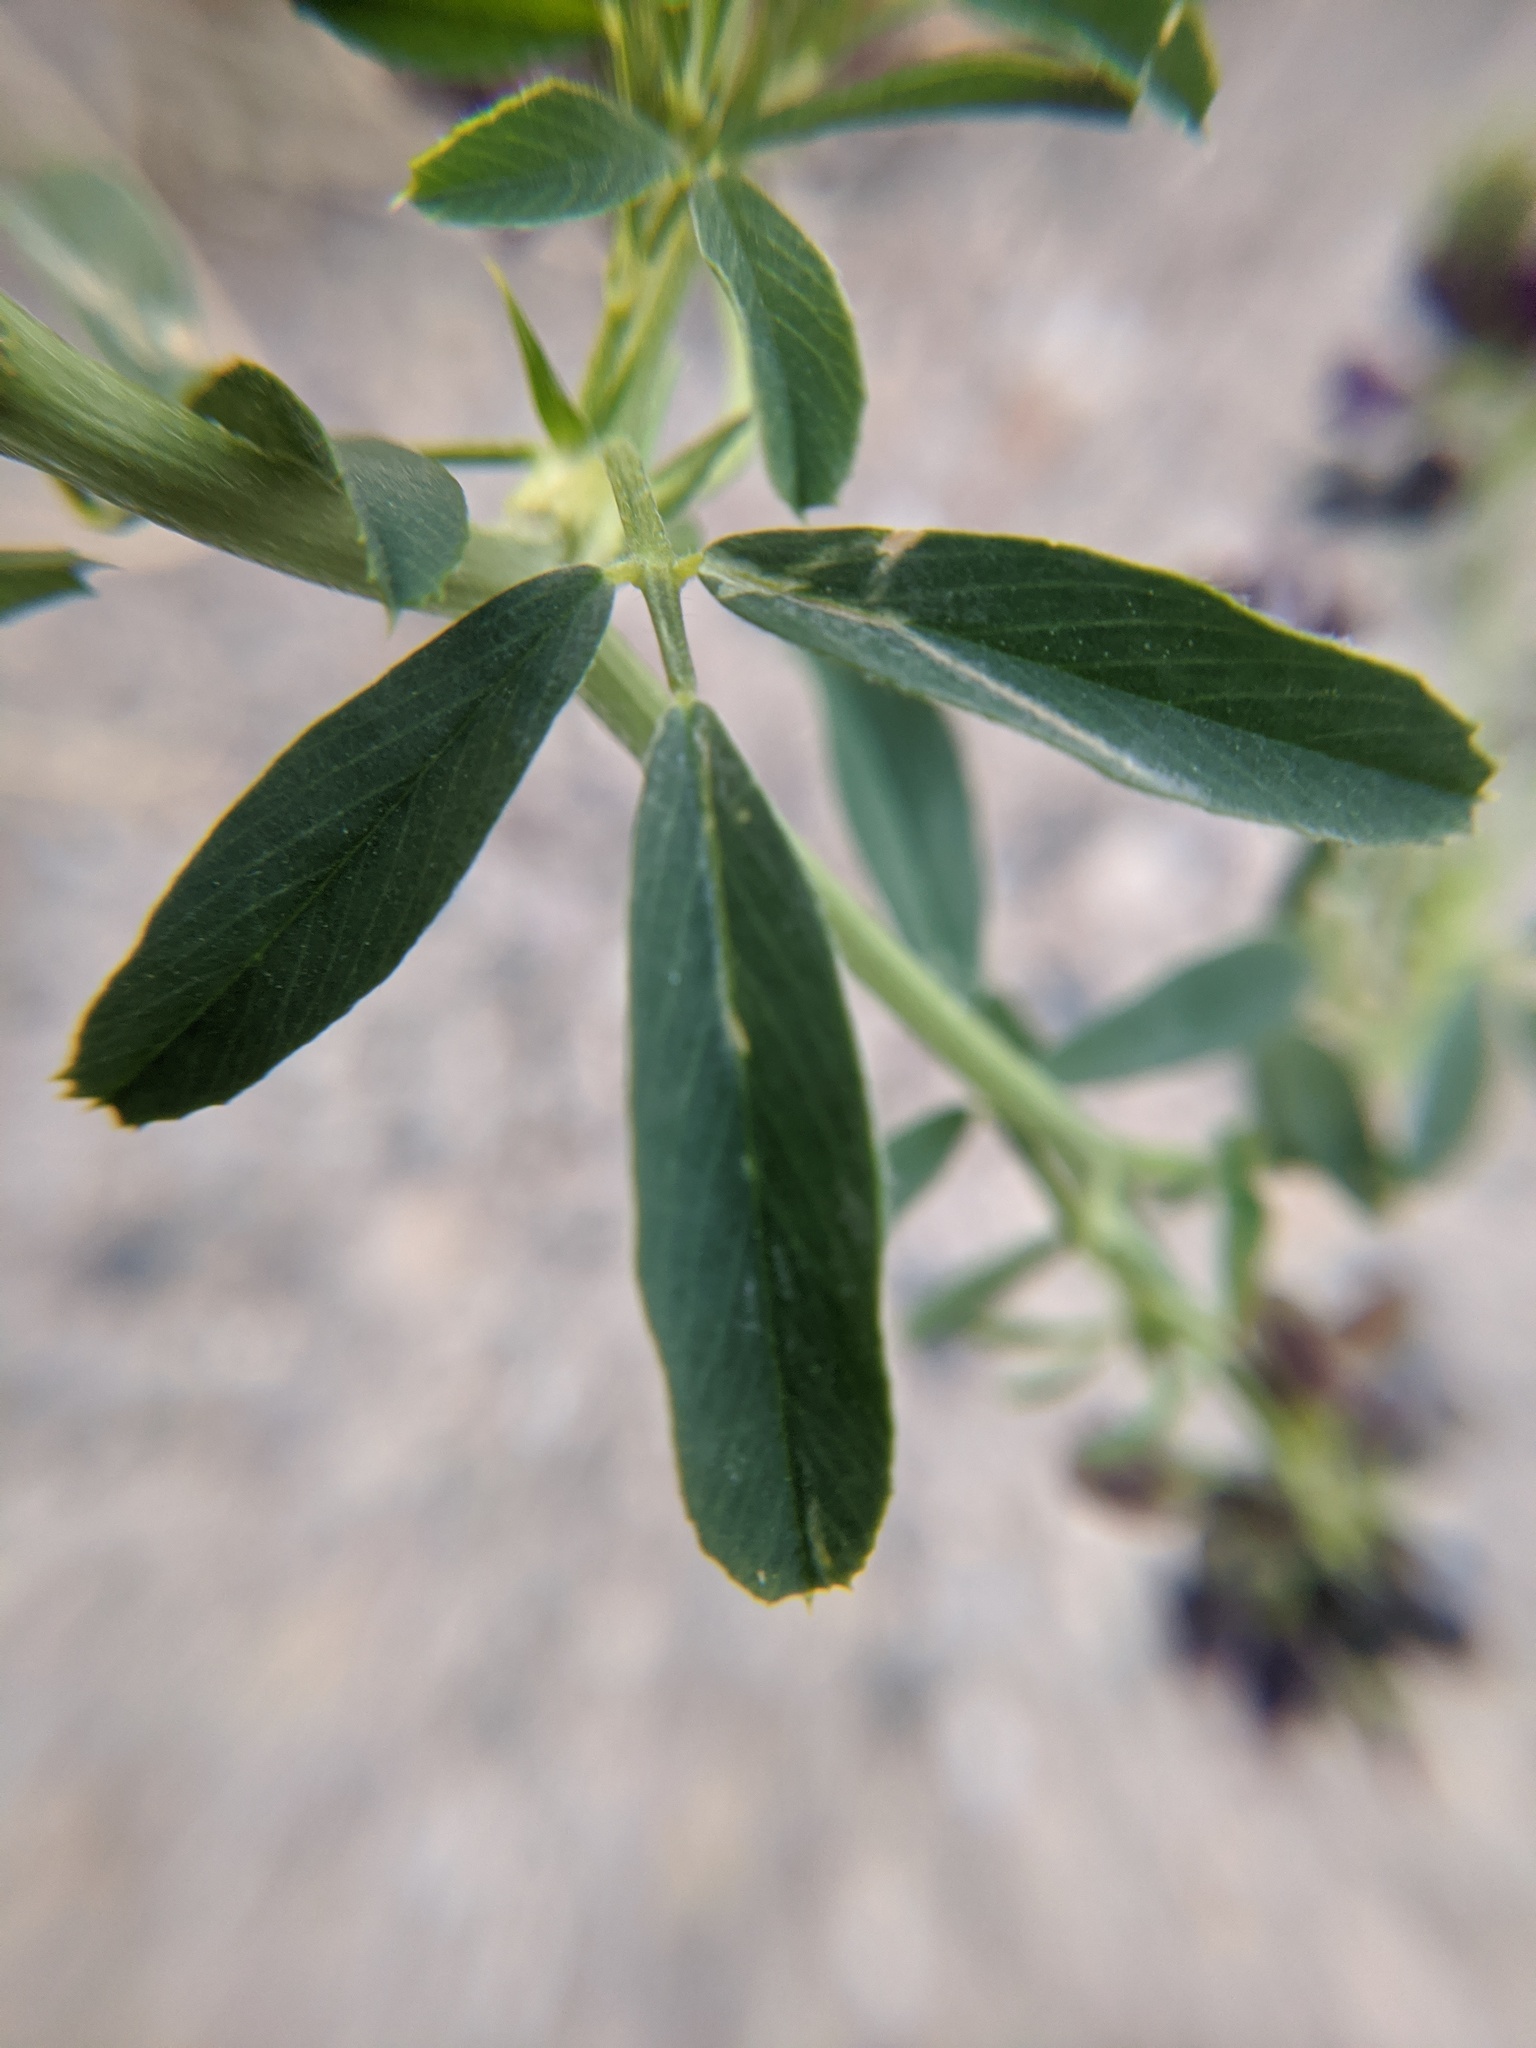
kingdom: Plantae
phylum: Tracheophyta
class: Magnoliopsida
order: Fabales
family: Fabaceae
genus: Medicago
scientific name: Medicago sativa
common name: Alfalfa
